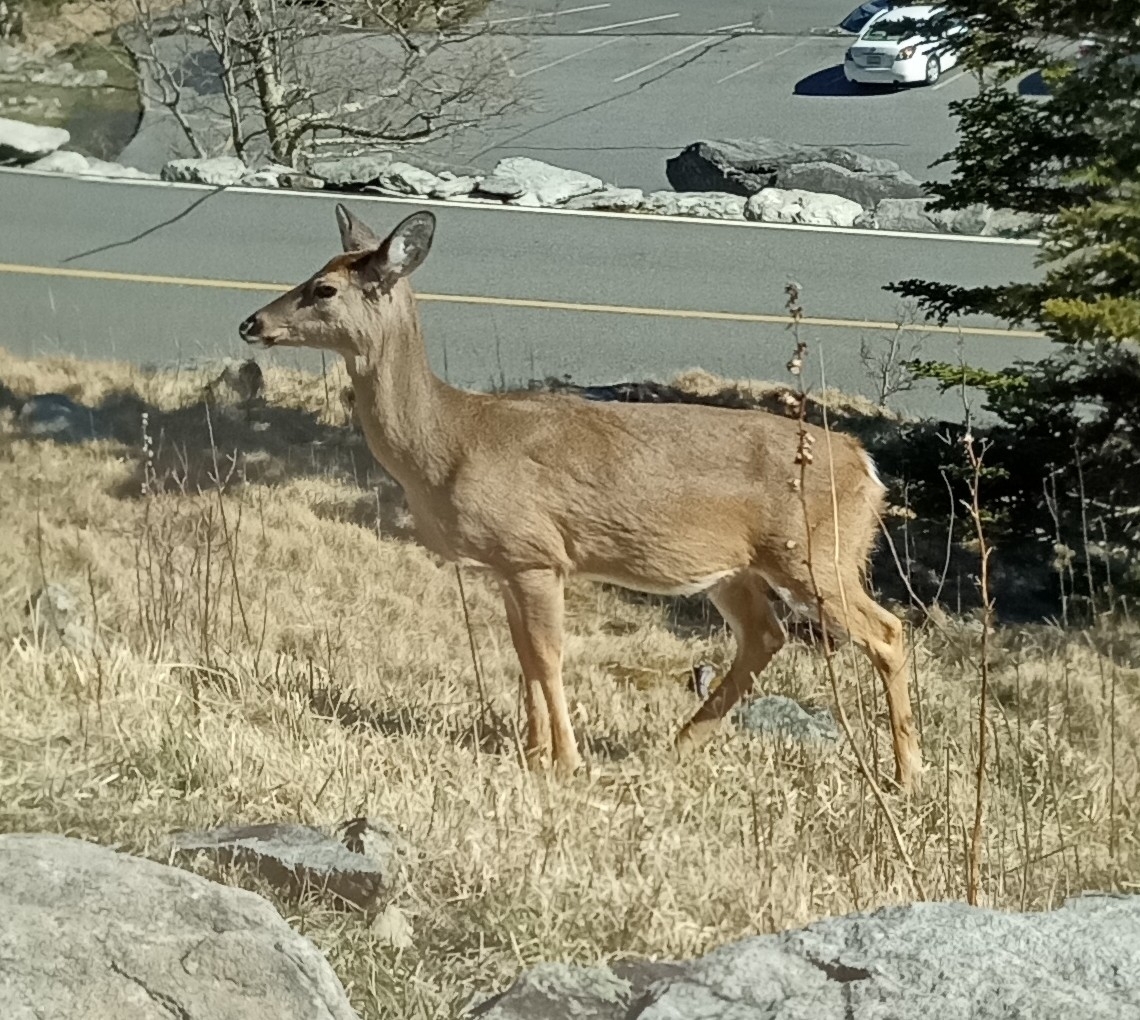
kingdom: Animalia
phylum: Chordata
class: Mammalia
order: Artiodactyla
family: Cervidae
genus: Odocoileus
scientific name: Odocoileus virginianus
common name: White-tailed deer
